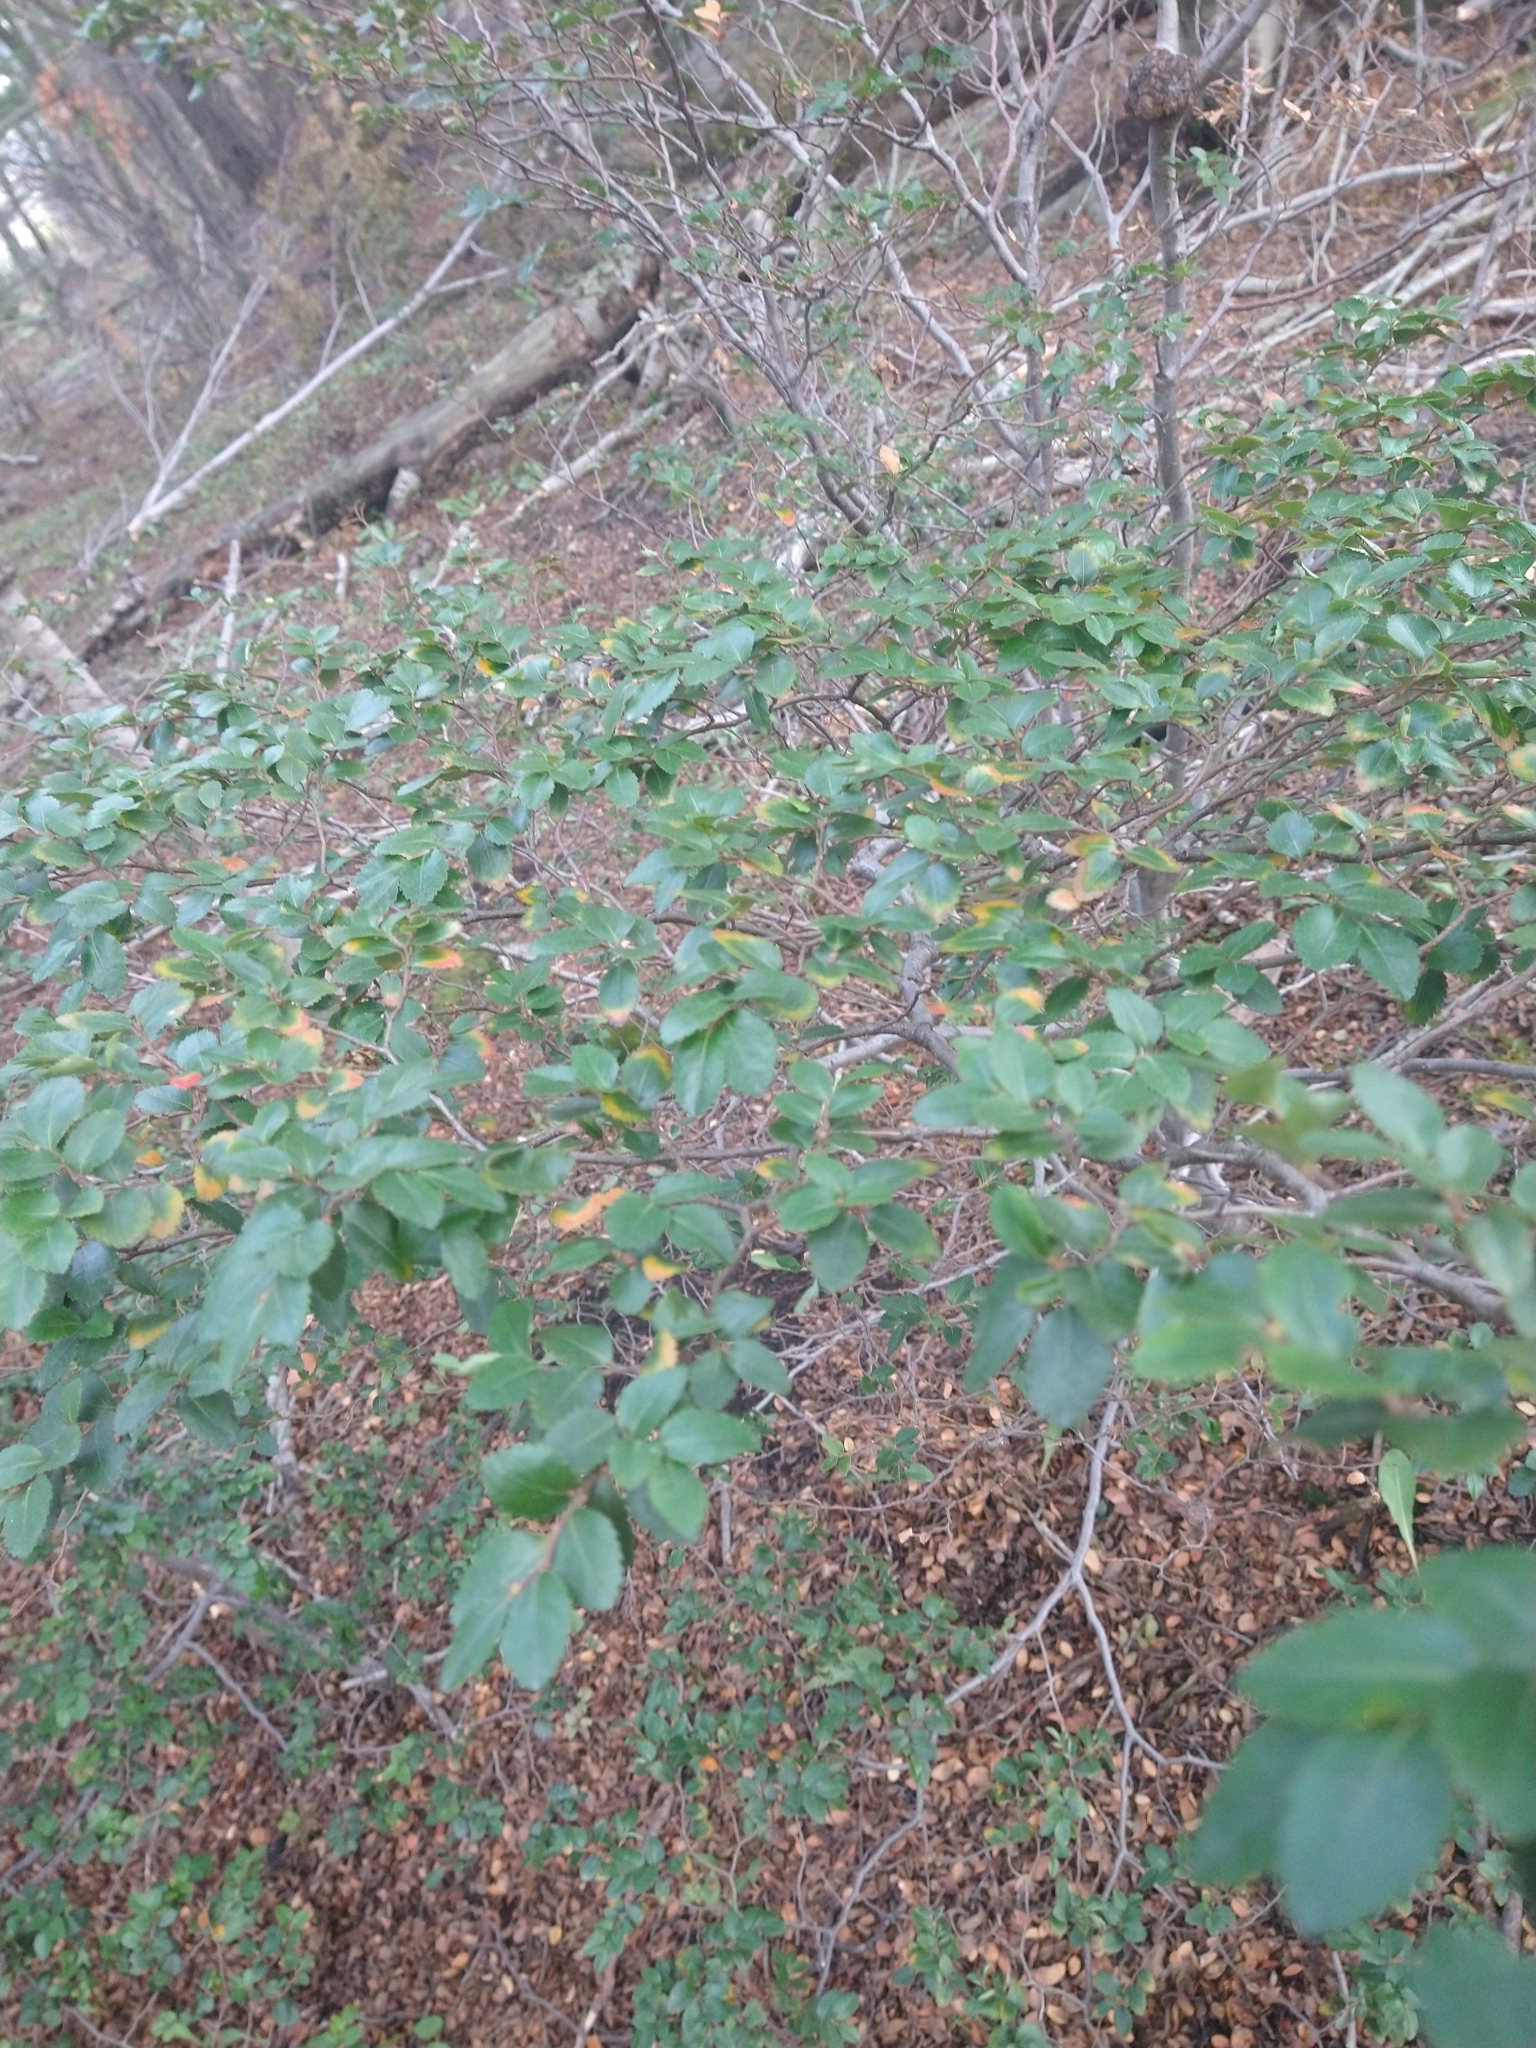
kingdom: Plantae
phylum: Tracheophyta
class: Magnoliopsida
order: Fagales
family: Nothofagaceae
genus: Nothofagus
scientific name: Nothofagus betuloides
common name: Magellan's beech
